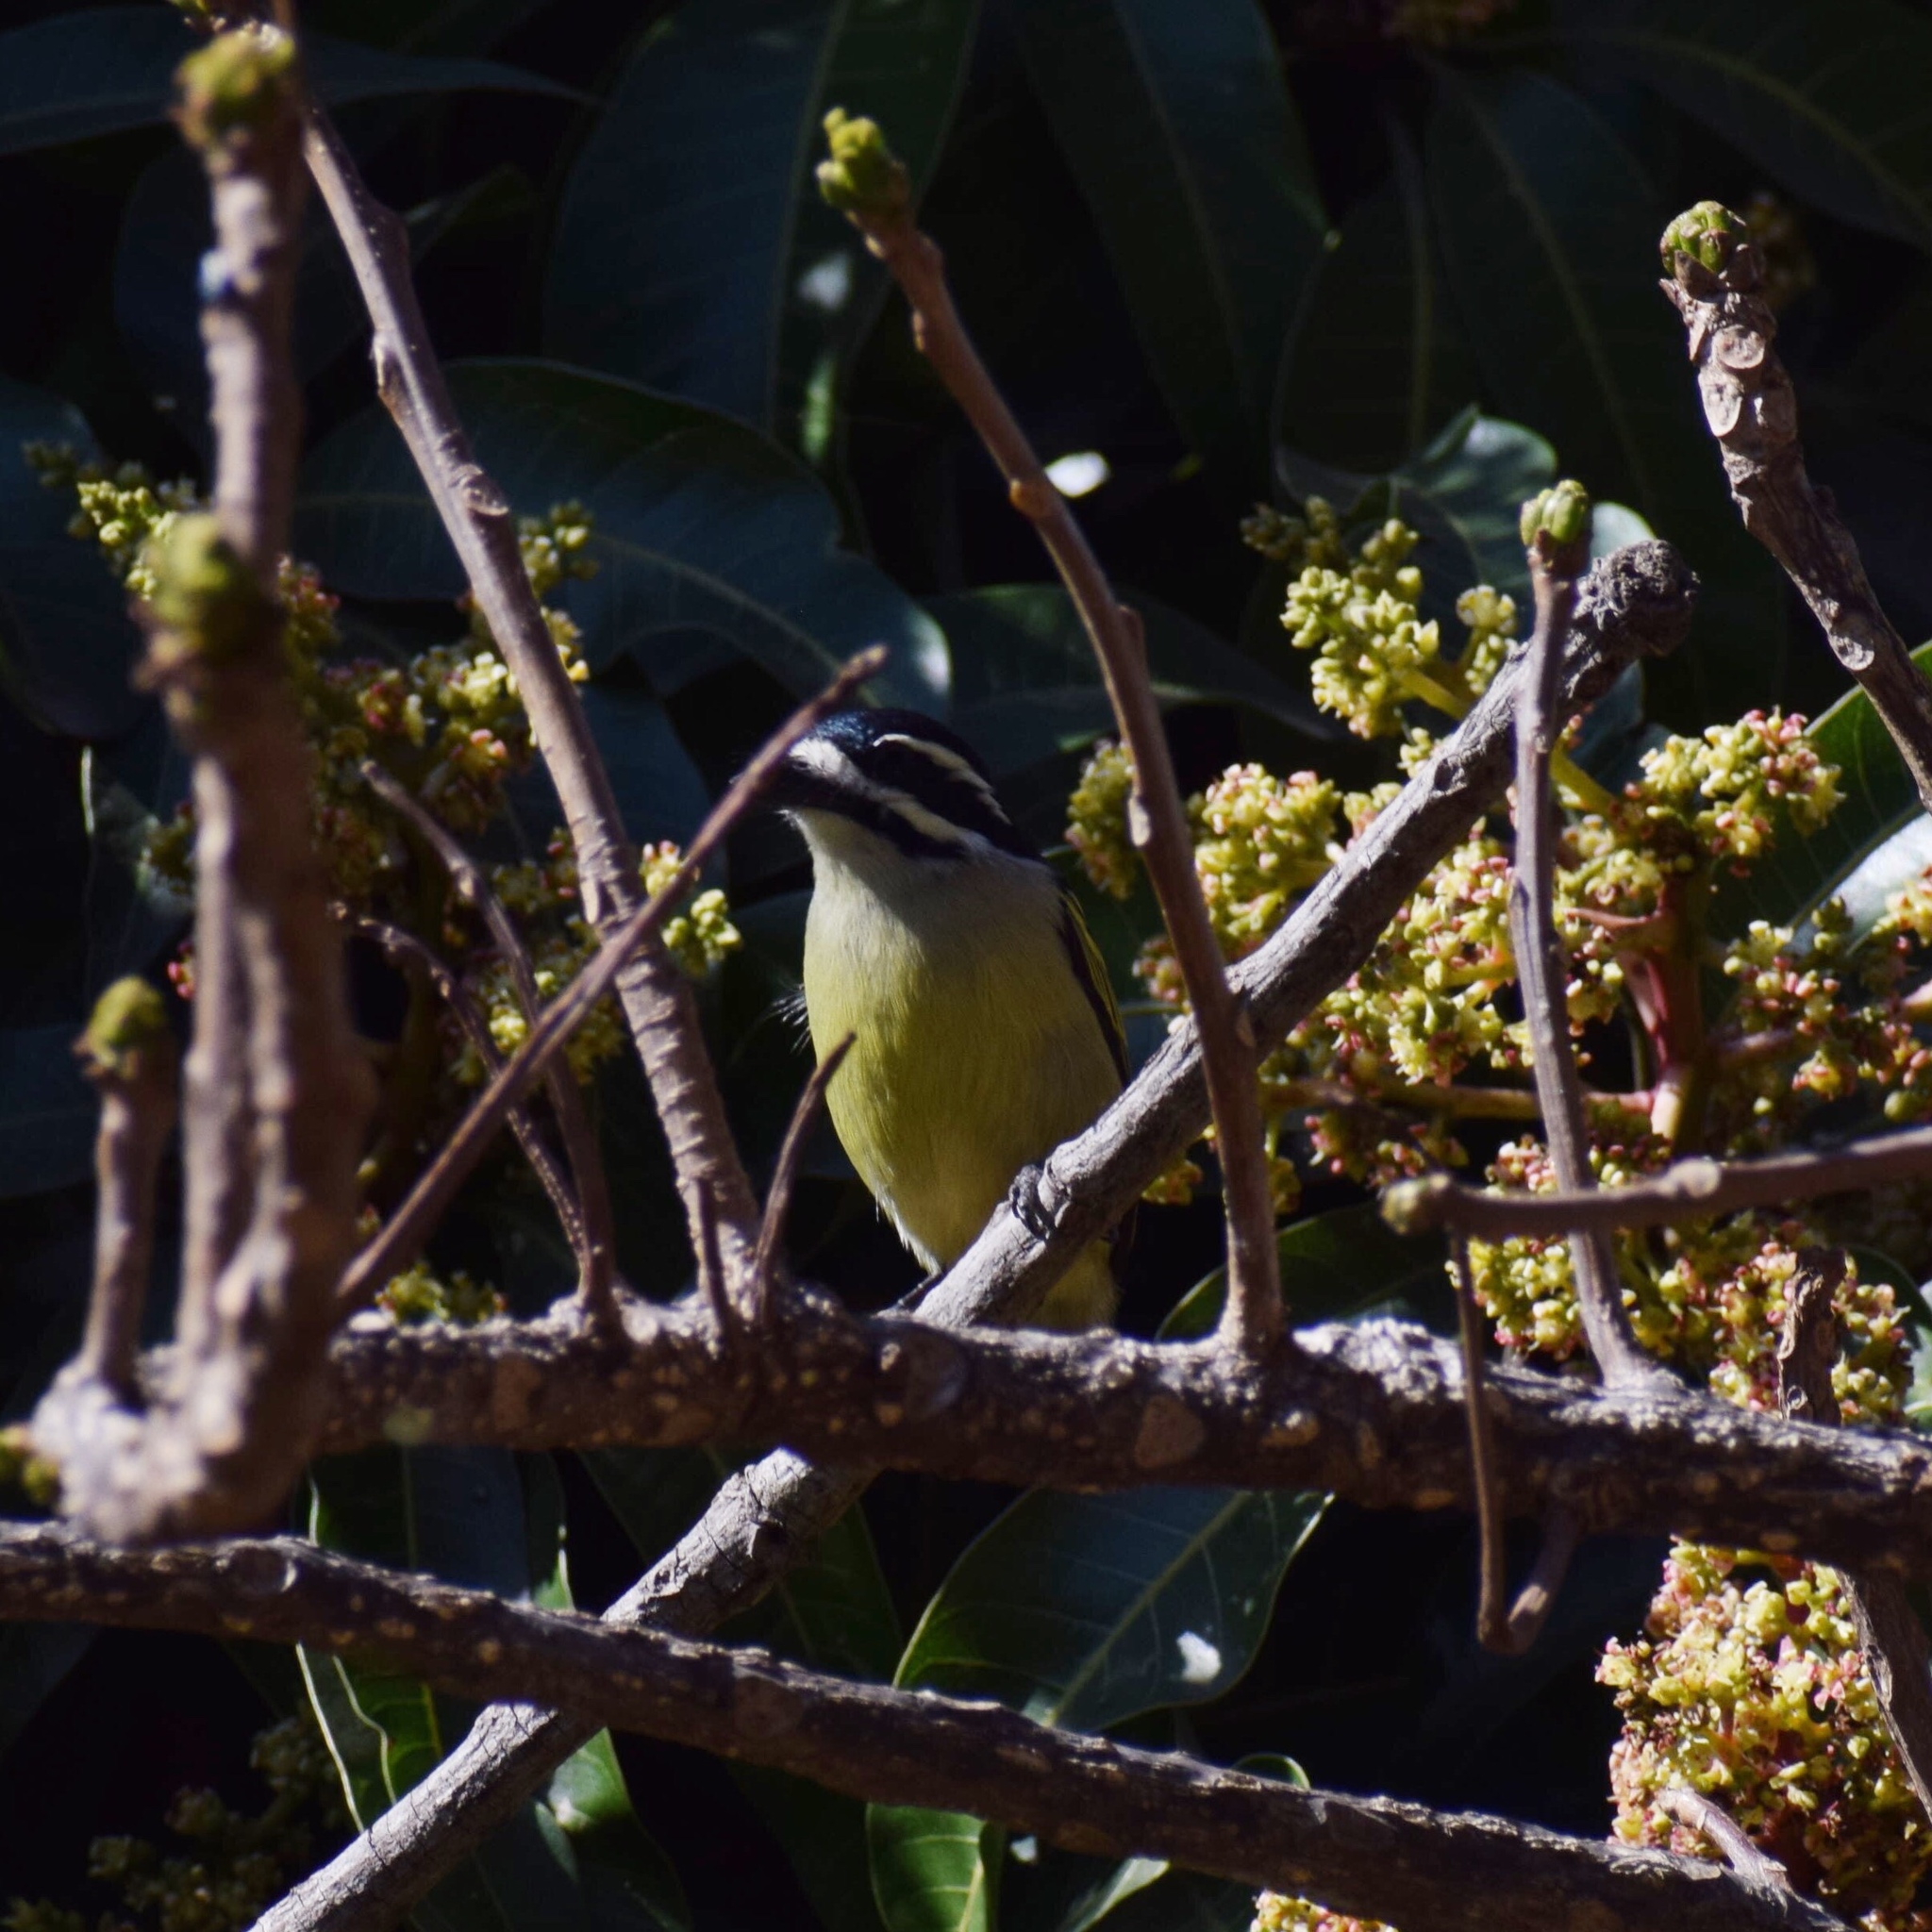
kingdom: Animalia
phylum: Chordata
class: Aves
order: Piciformes
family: Lybiidae
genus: Pogoniulus
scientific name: Pogoniulus bilineatus
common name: Yellow-rumped tinkerbird
